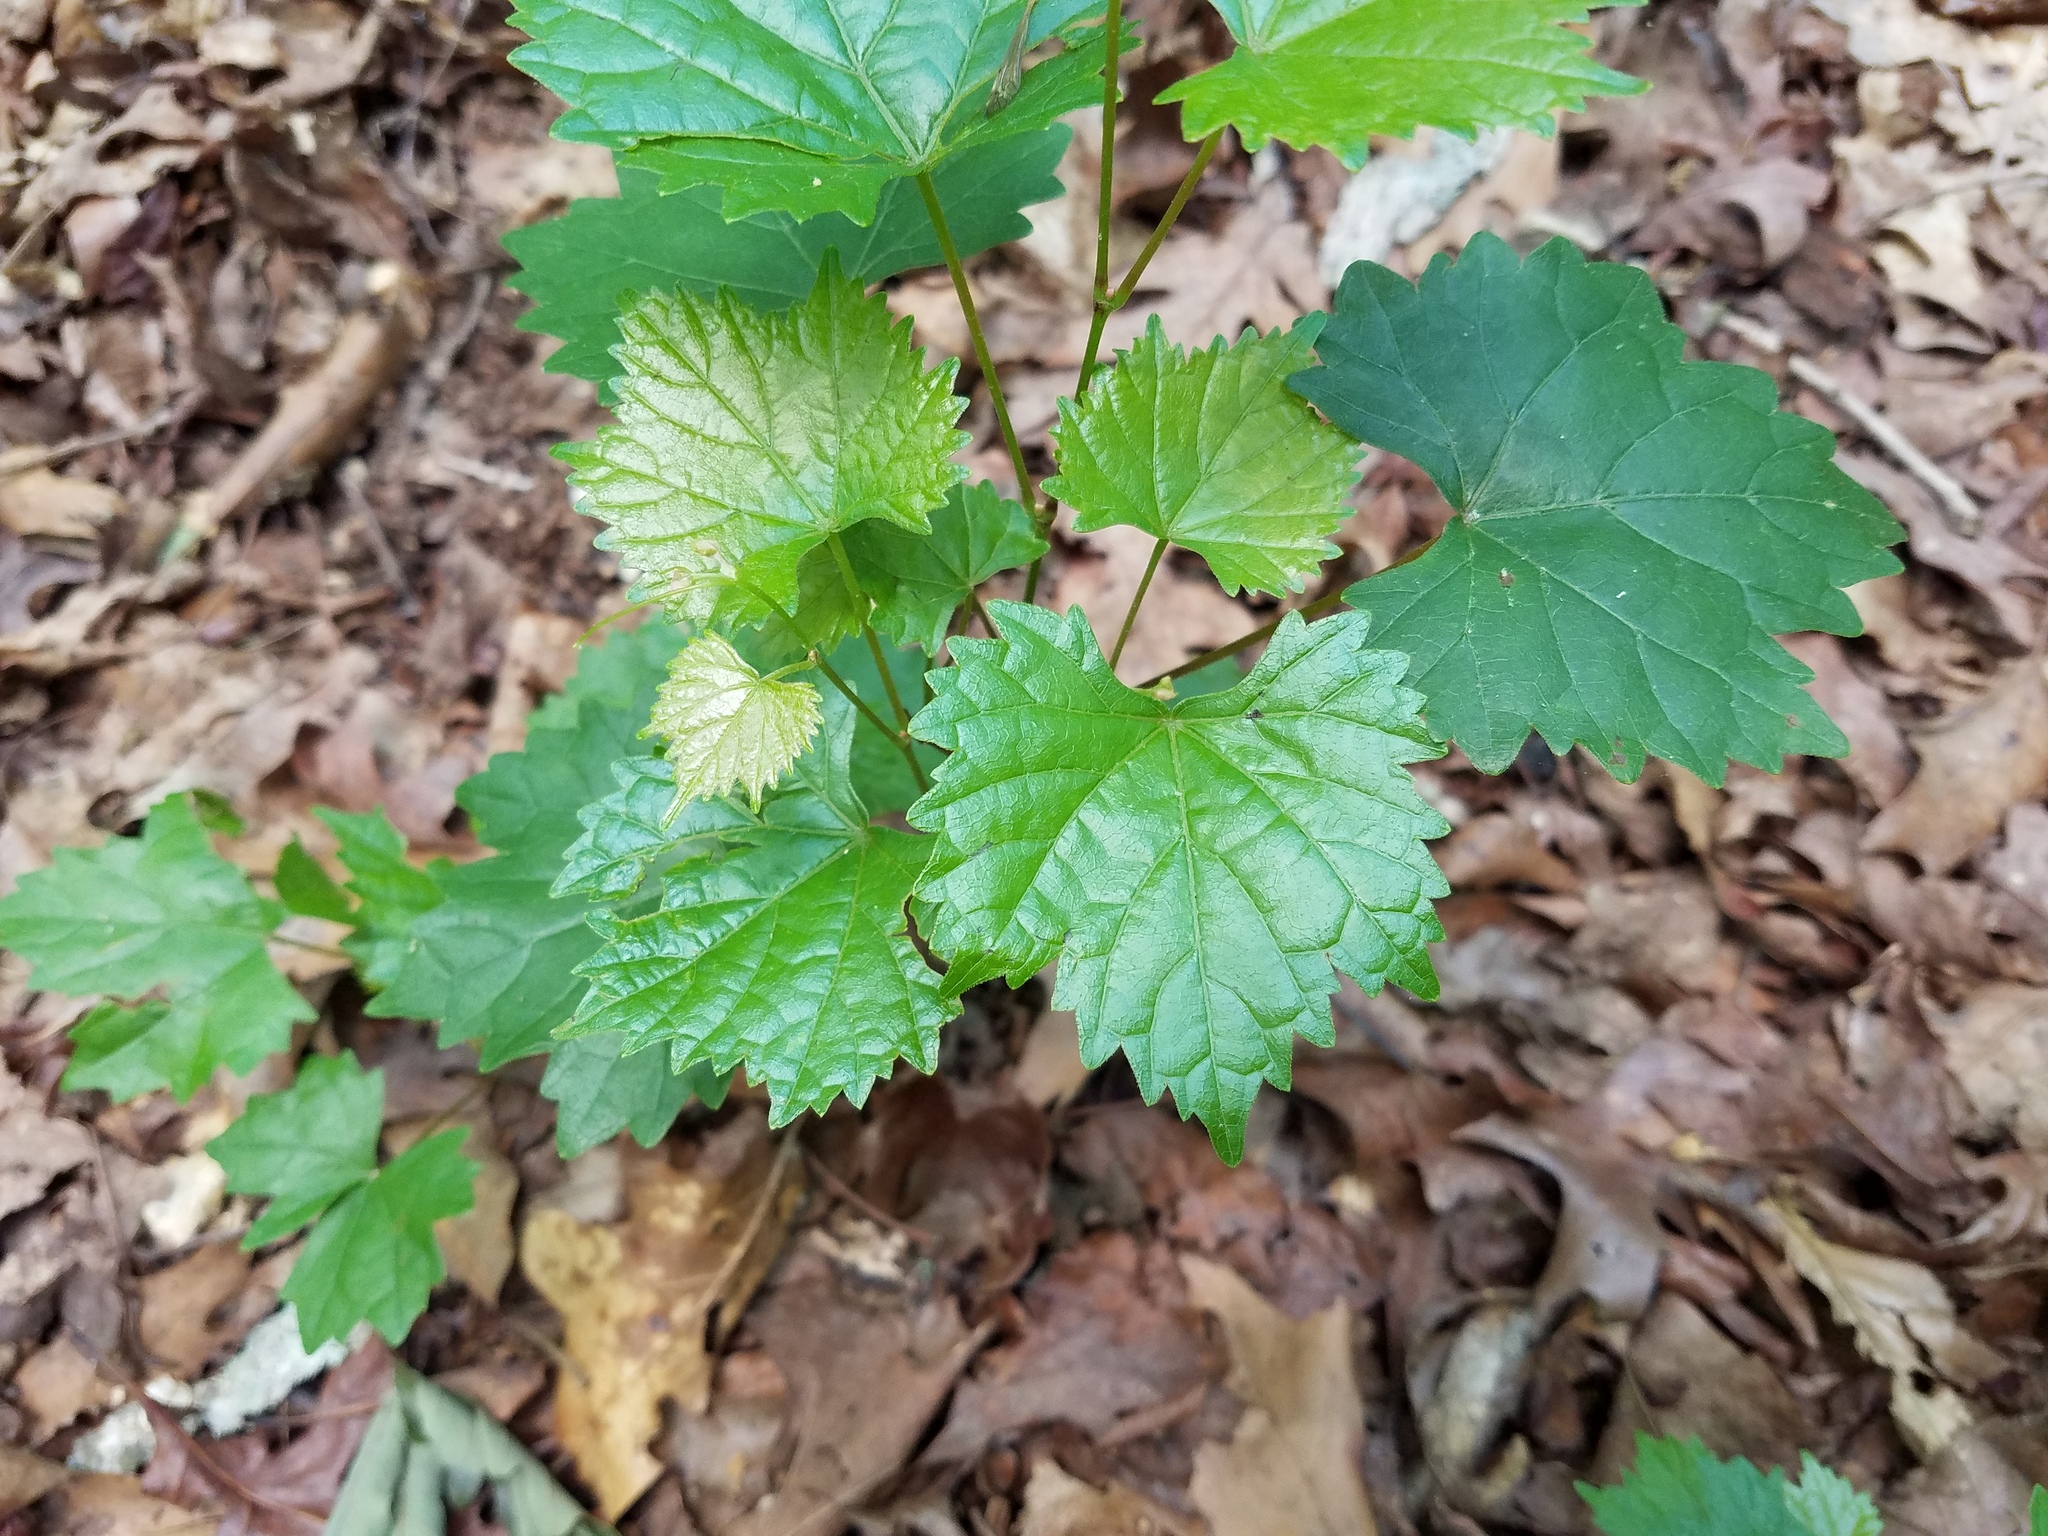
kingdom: Plantae
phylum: Tracheophyta
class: Magnoliopsida
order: Vitales
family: Vitaceae
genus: Vitis
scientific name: Vitis rotundifolia
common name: Muscadine grape
